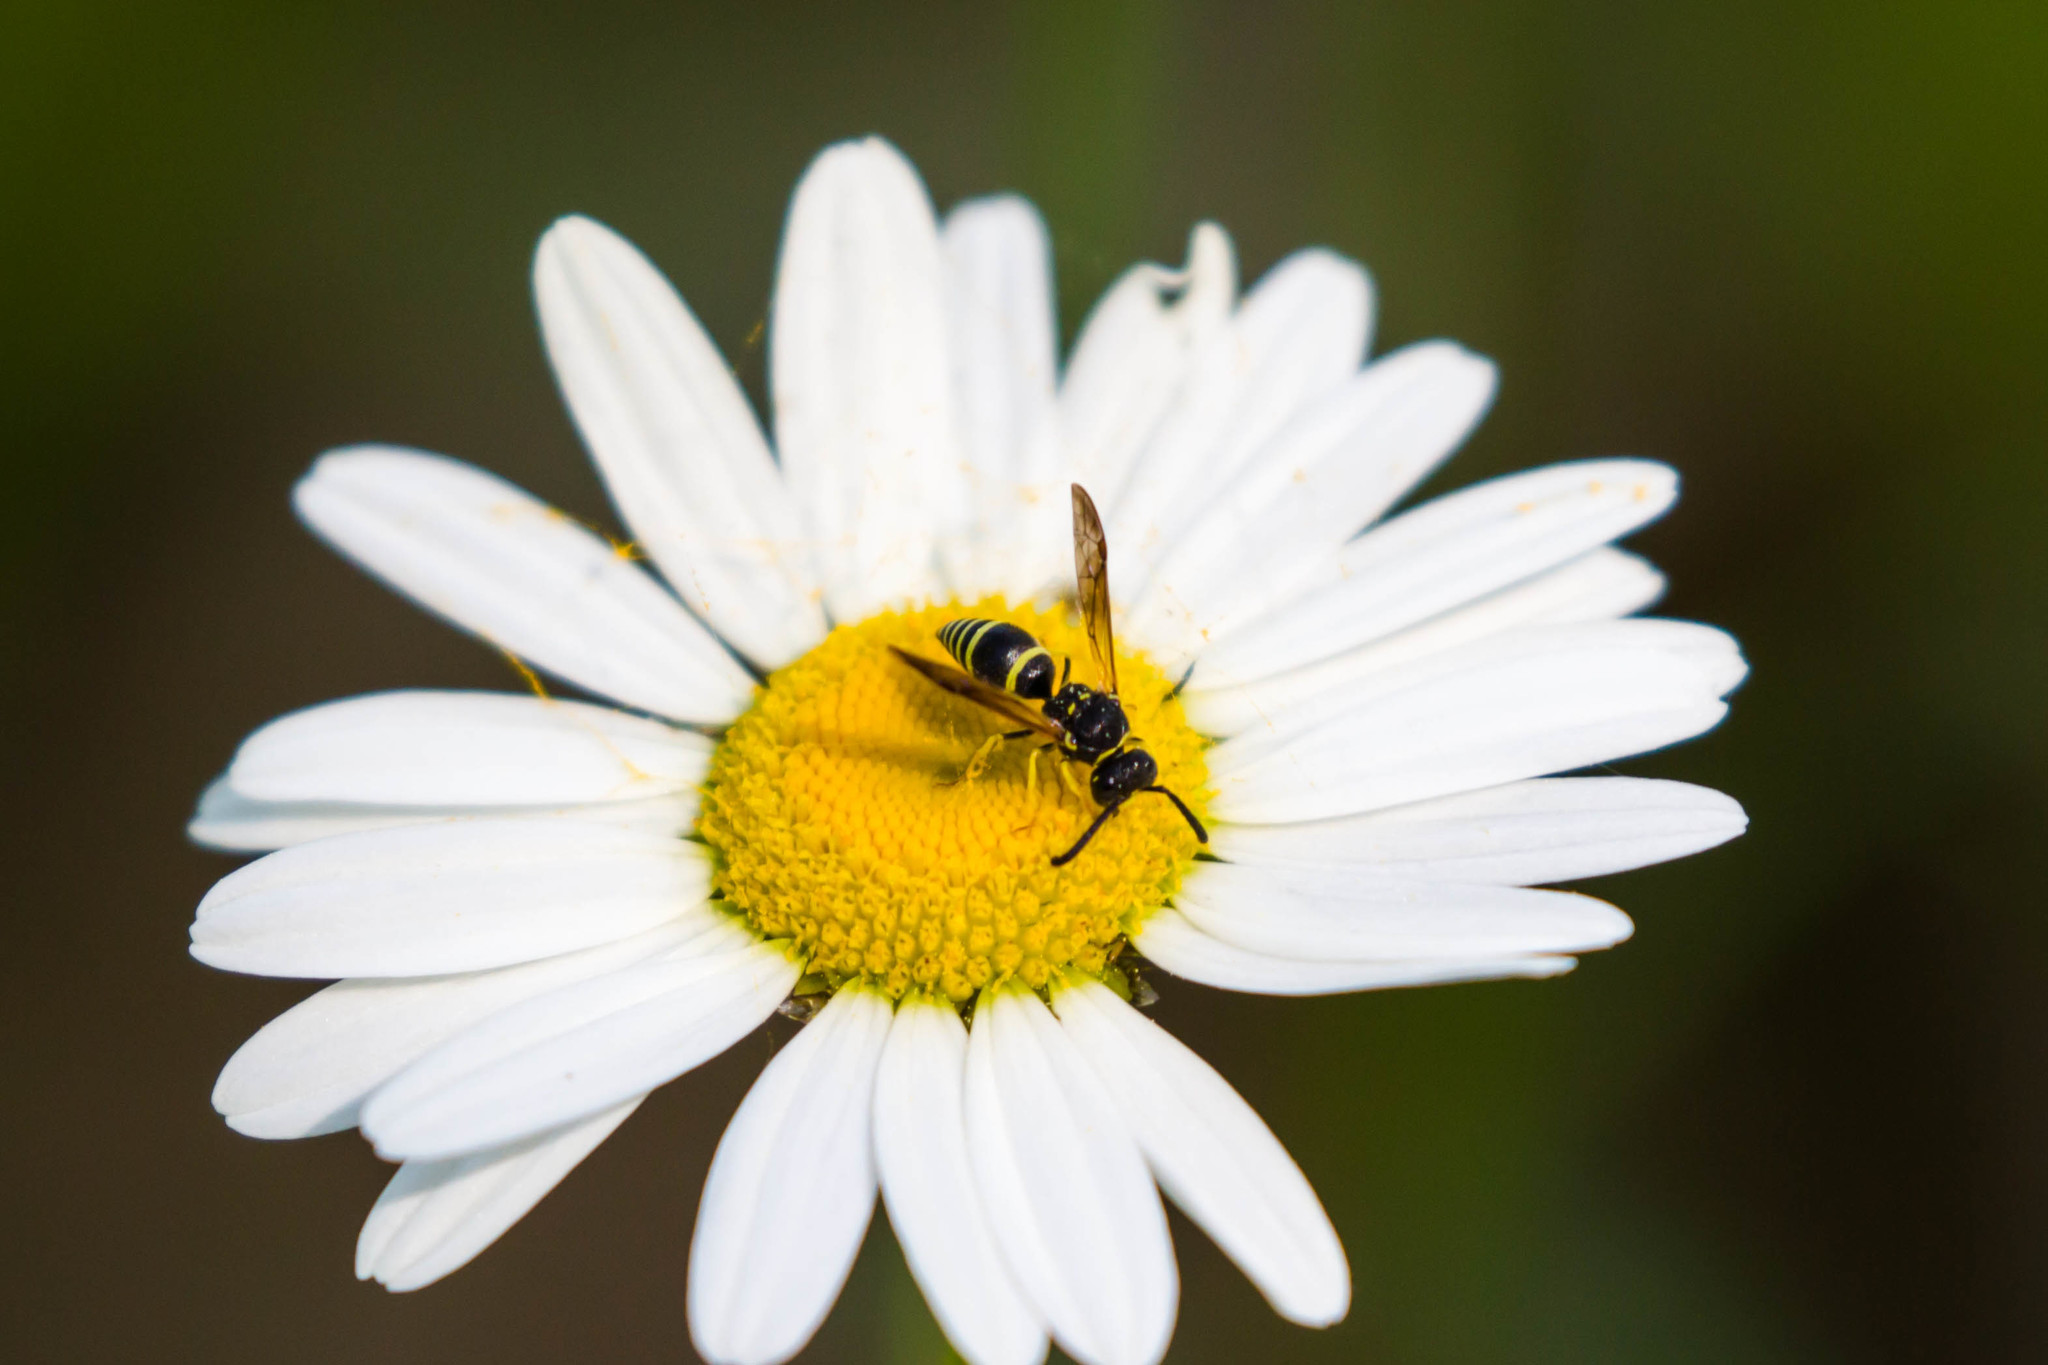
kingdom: Animalia
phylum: Arthropoda
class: Insecta
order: Hymenoptera
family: Vespidae
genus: Ancistrocerus
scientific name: Ancistrocerus
